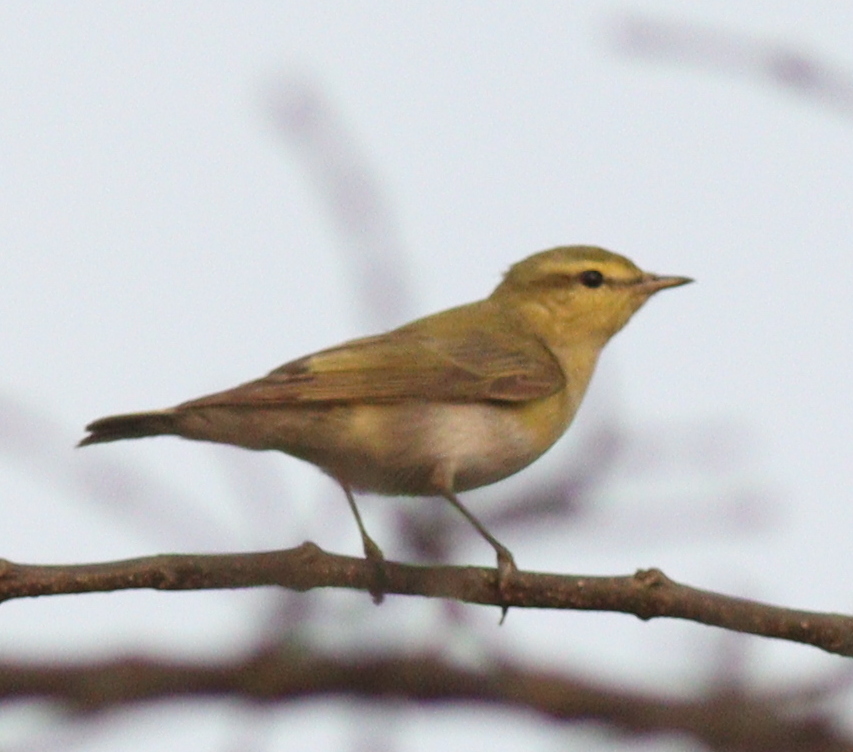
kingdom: Animalia
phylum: Chordata
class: Aves
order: Passeriformes
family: Phylloscopidae
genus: Phylloscopus
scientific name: Phylloscopus sibillatrix
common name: Wood warbler
